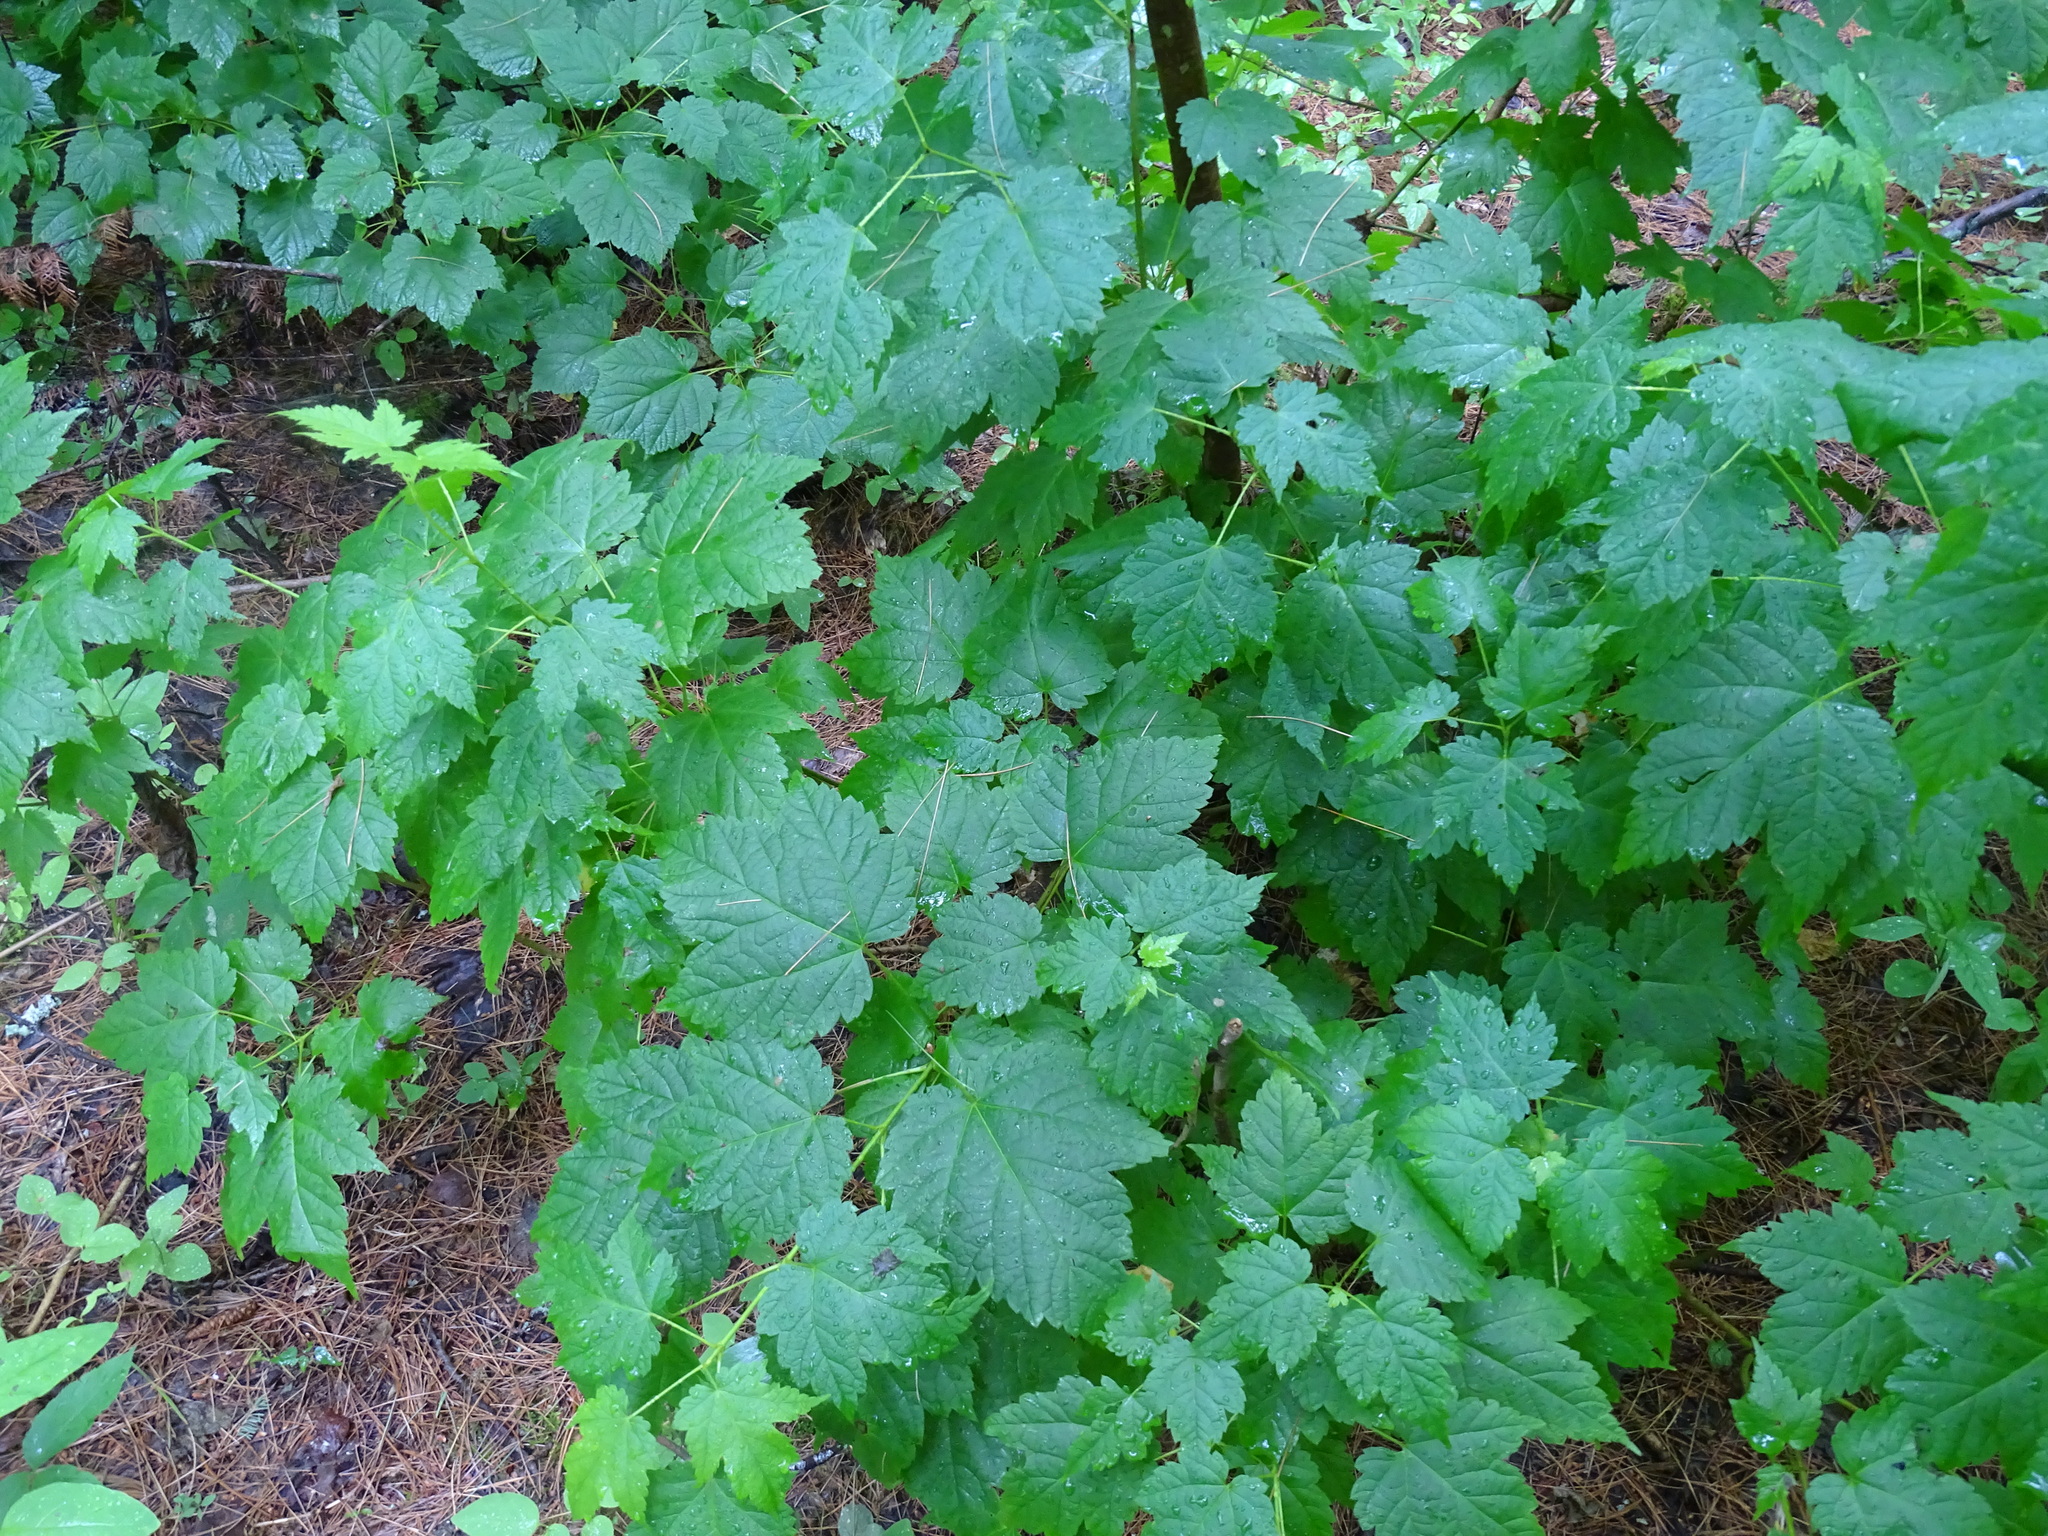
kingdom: Plantae
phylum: Tracheophyta
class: Magnoliopsida
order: Sapindales
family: Sapindaceae
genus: Acer
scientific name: Acer spicatum
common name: Mountain maple
